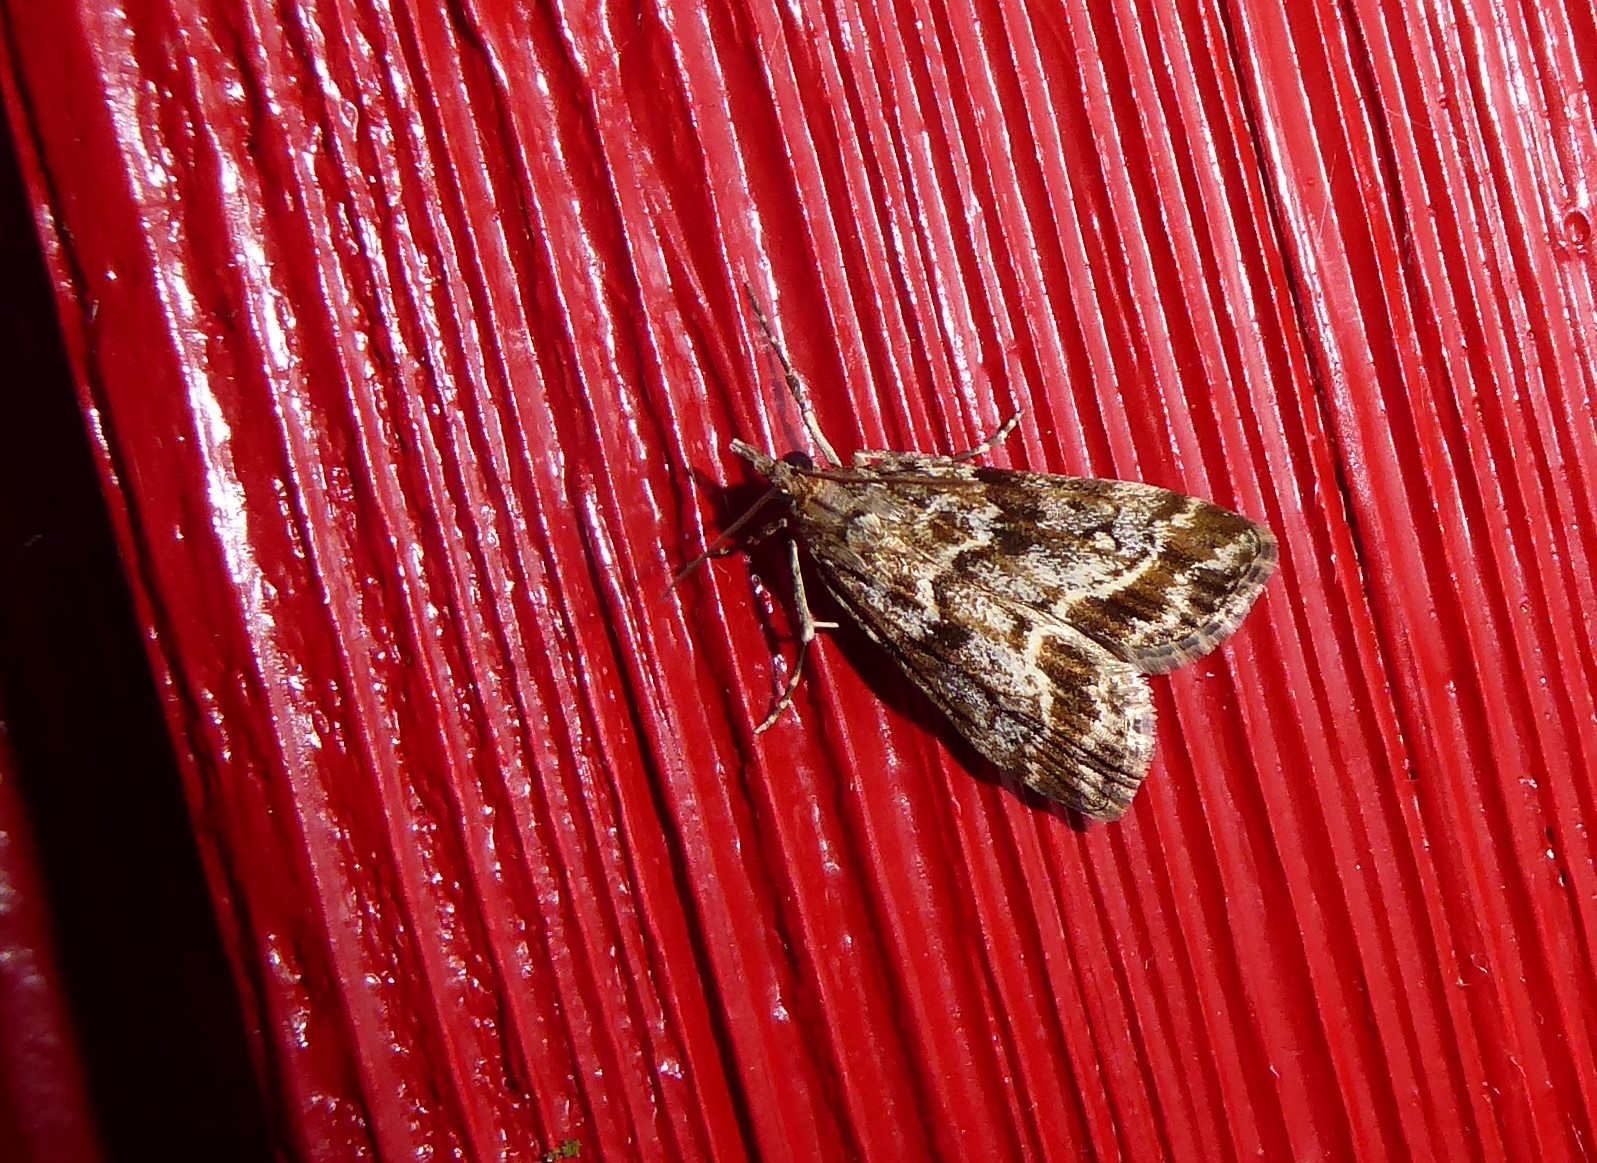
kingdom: Animalia
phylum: Arthropoda
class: Insecta
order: Lepidoptera
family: Crambidae
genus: Eudonia
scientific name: Eudonia legnota
